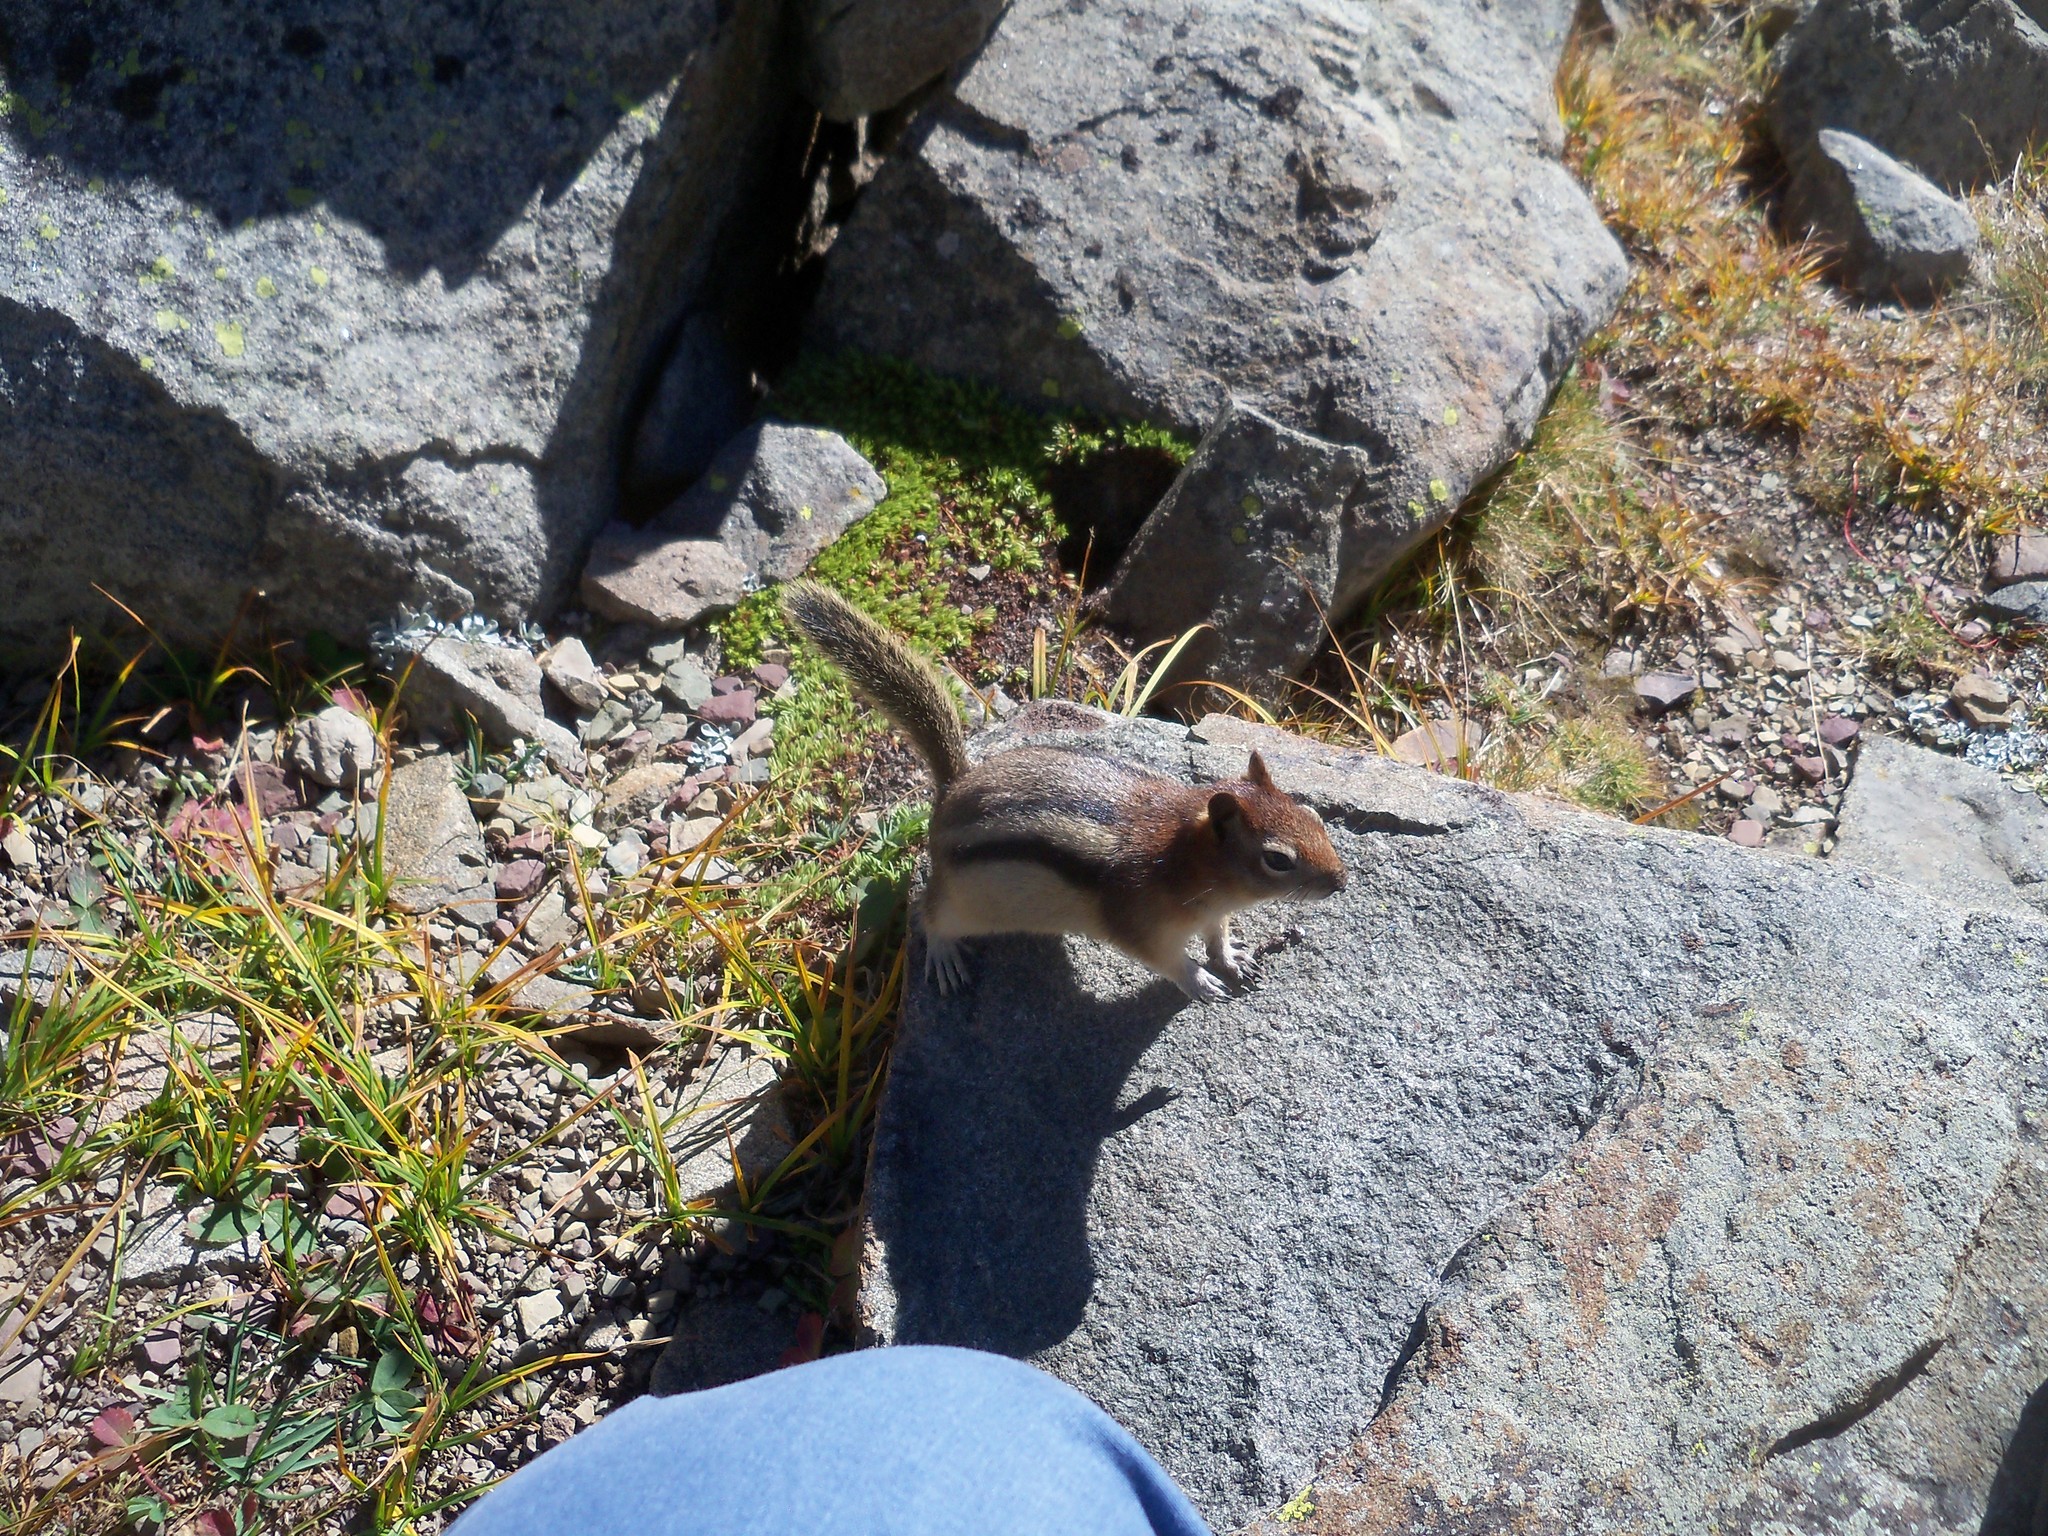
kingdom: Animalia
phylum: Chordata
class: Mammalia
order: Rodentia
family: Sciuridae
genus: Callospermophilus
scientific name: Callospermophilus lateralis
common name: Golden-mantled ground squirrel
